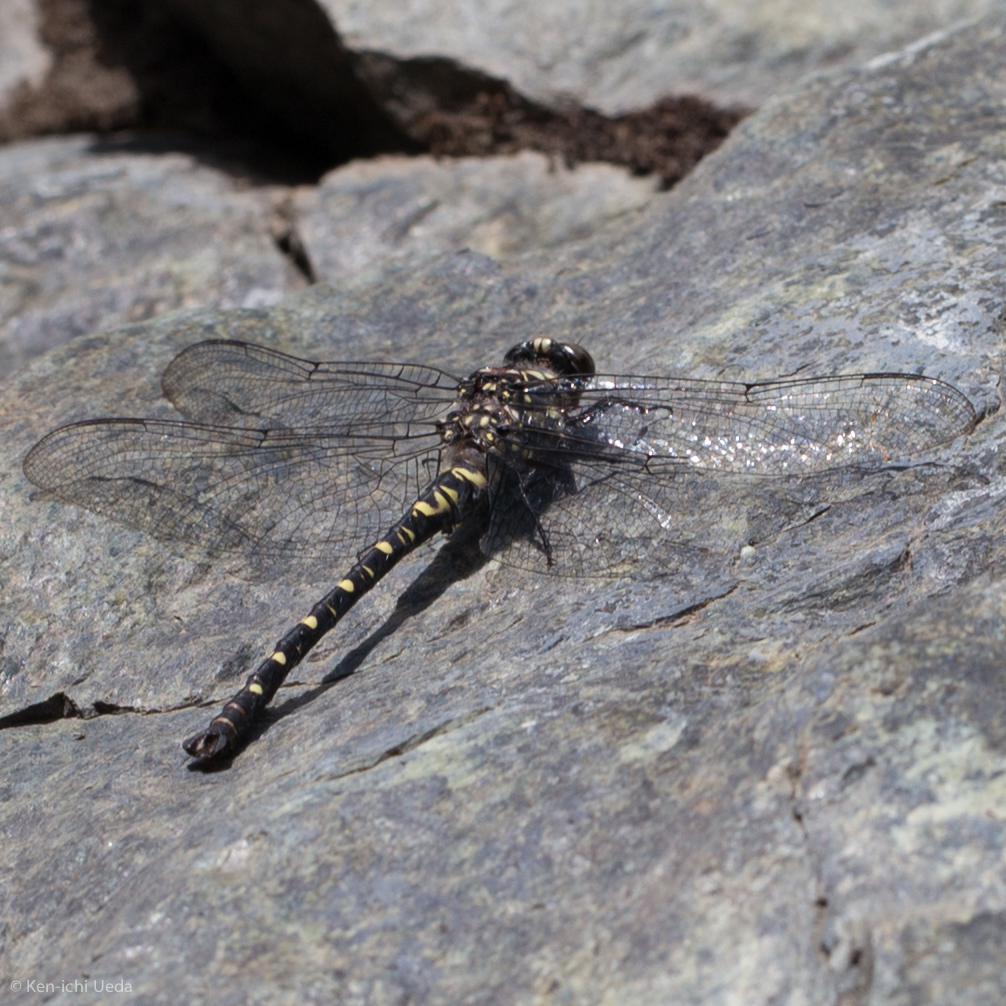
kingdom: Animalia
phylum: Arthropoda
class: Insecta
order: Odonata
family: Petaluridae
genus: Tanypteryx
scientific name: Tanypteryx hageni
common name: Black petaltail
